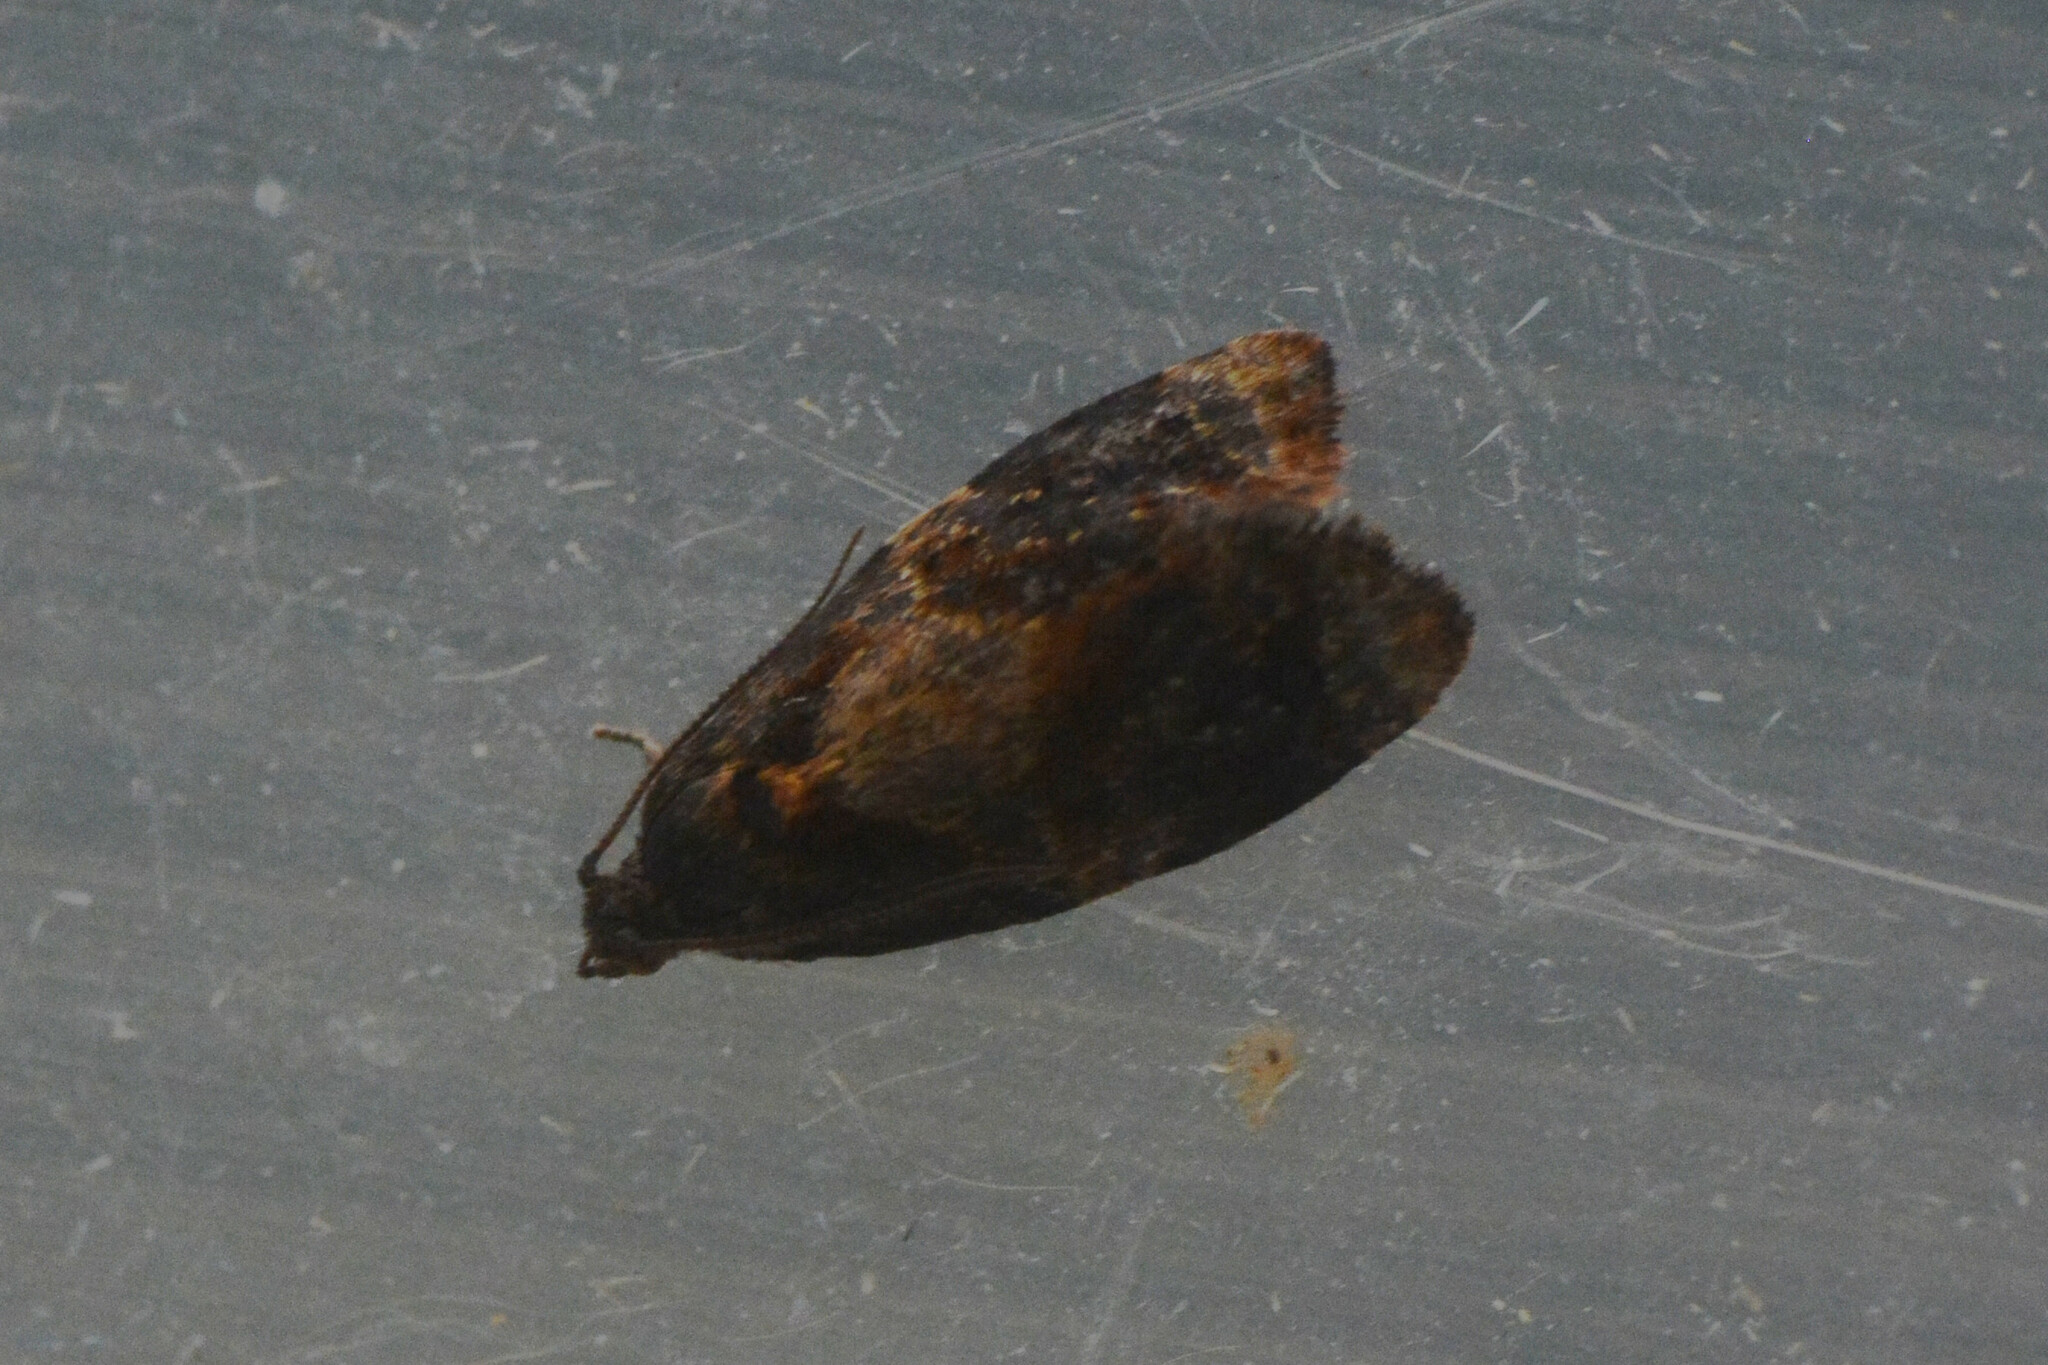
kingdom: Animalia
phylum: Arthropoda
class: Insecta
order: Lepidoptera
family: Tortricidae
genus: Ditula
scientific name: Ditula angustiorana
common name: Red-barred tortrix
